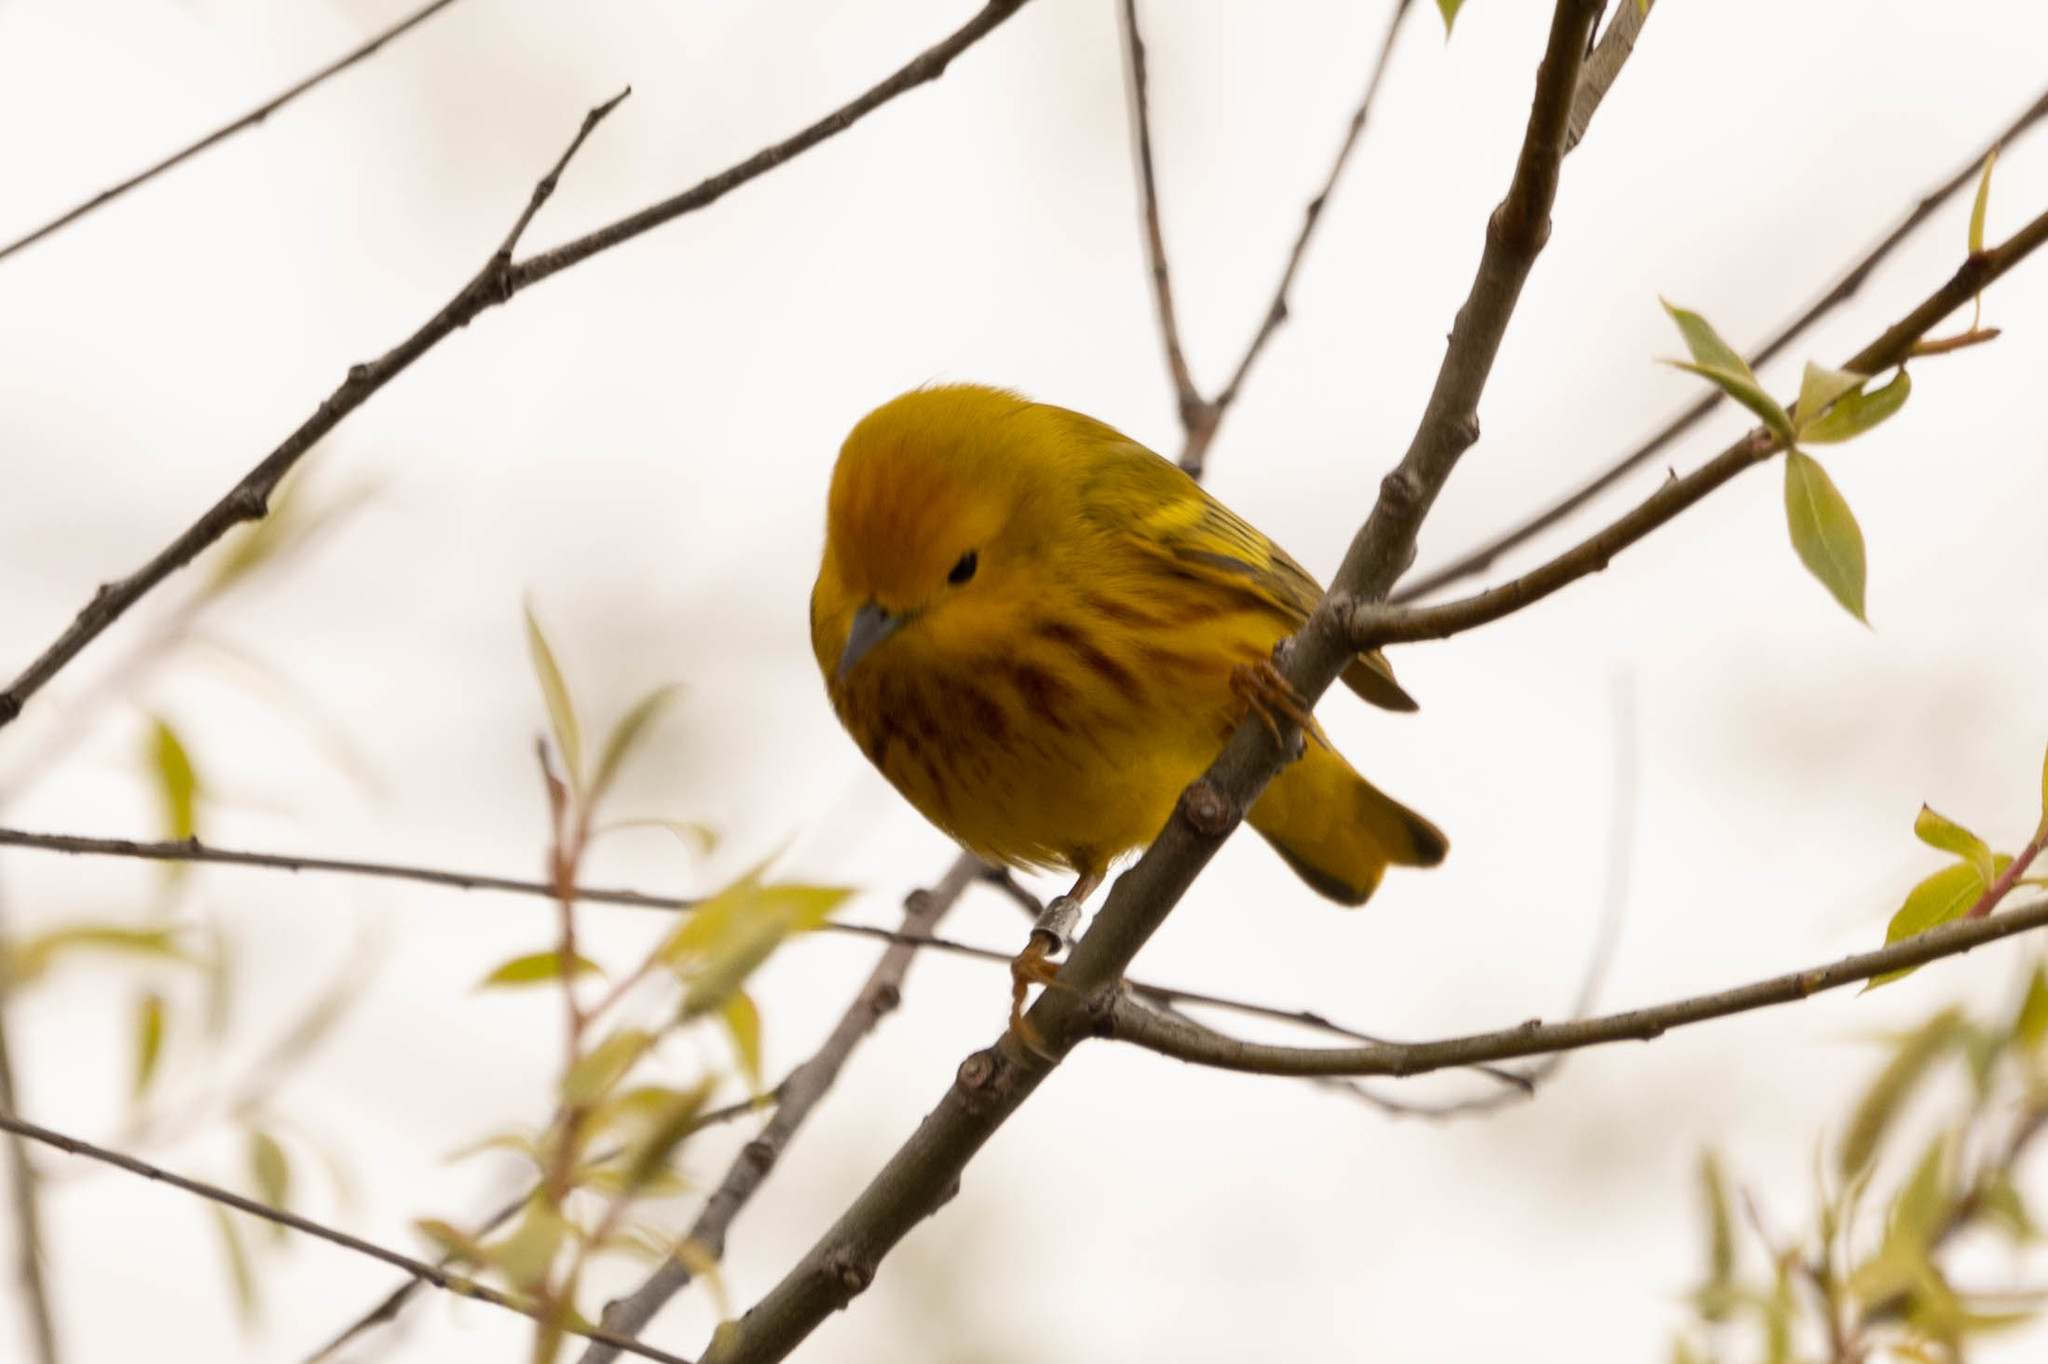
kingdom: Animalia
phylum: Chordata
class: Aves
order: Passeriformes
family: Parulidae
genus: Setophaga
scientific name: Setophaga petechia
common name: Yellow warbler
